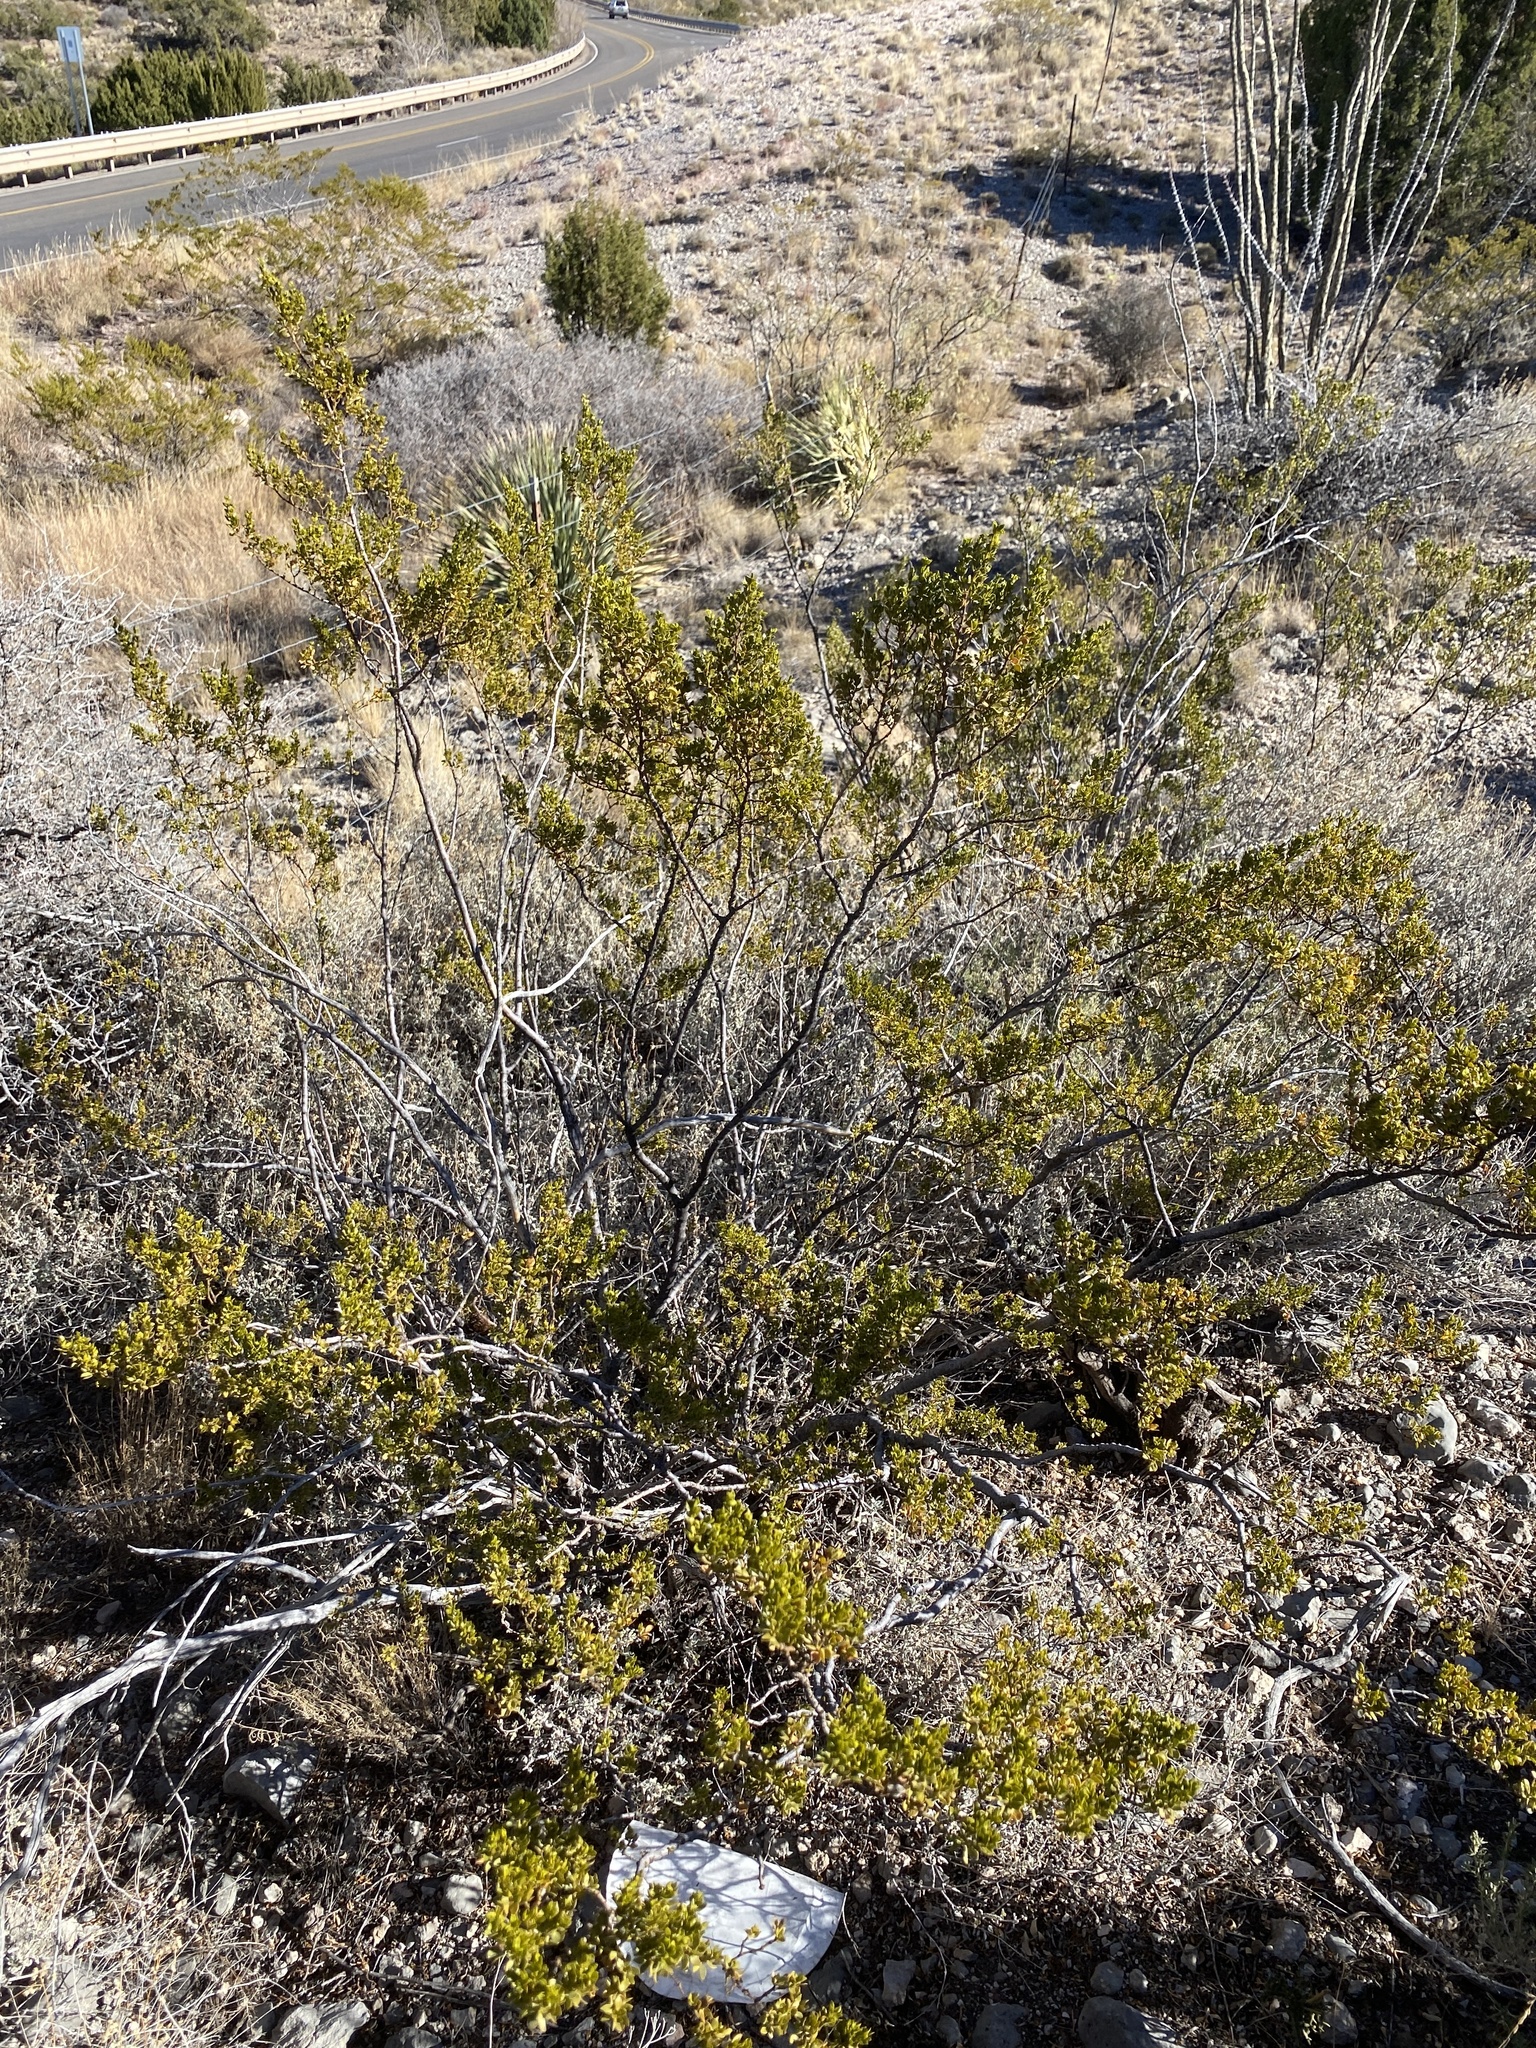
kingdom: Plantae
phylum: Tracheophyta
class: Magnoliopsida
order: Zygophyllales
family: Zygophyllaceae
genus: Larrea
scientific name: Larrea tridentata
